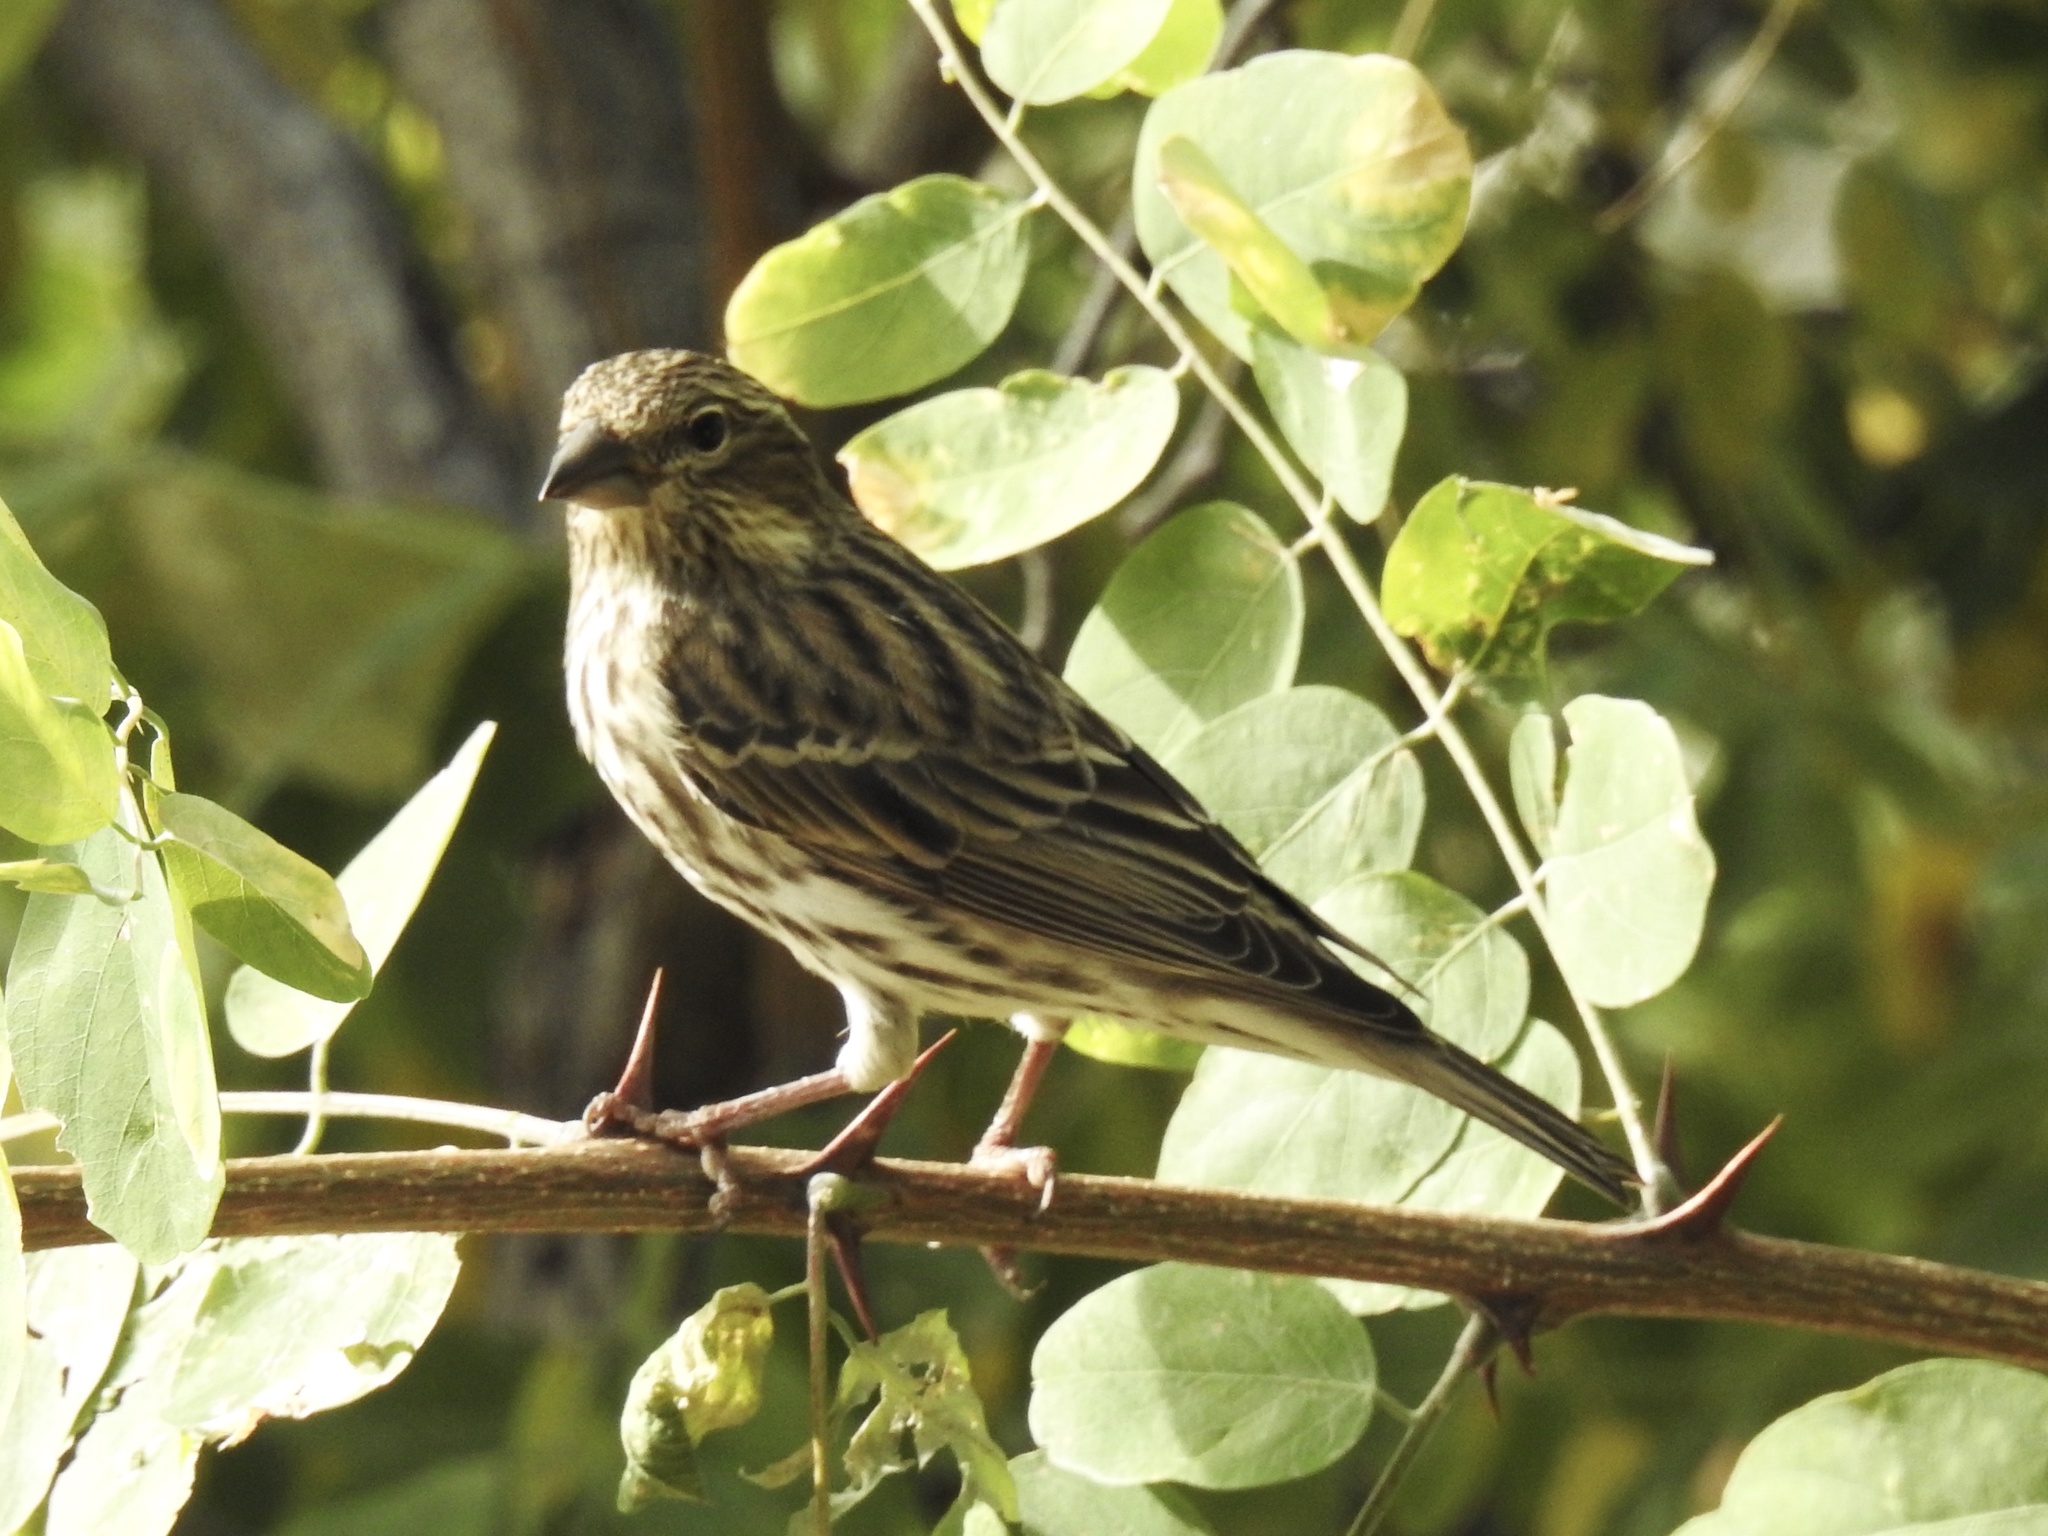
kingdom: Animalia
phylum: Chordata
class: Aves
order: Passeriformes
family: Fringillidae
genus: Haemorhous
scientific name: Haemorhous cassinii
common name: Cassin's finch
